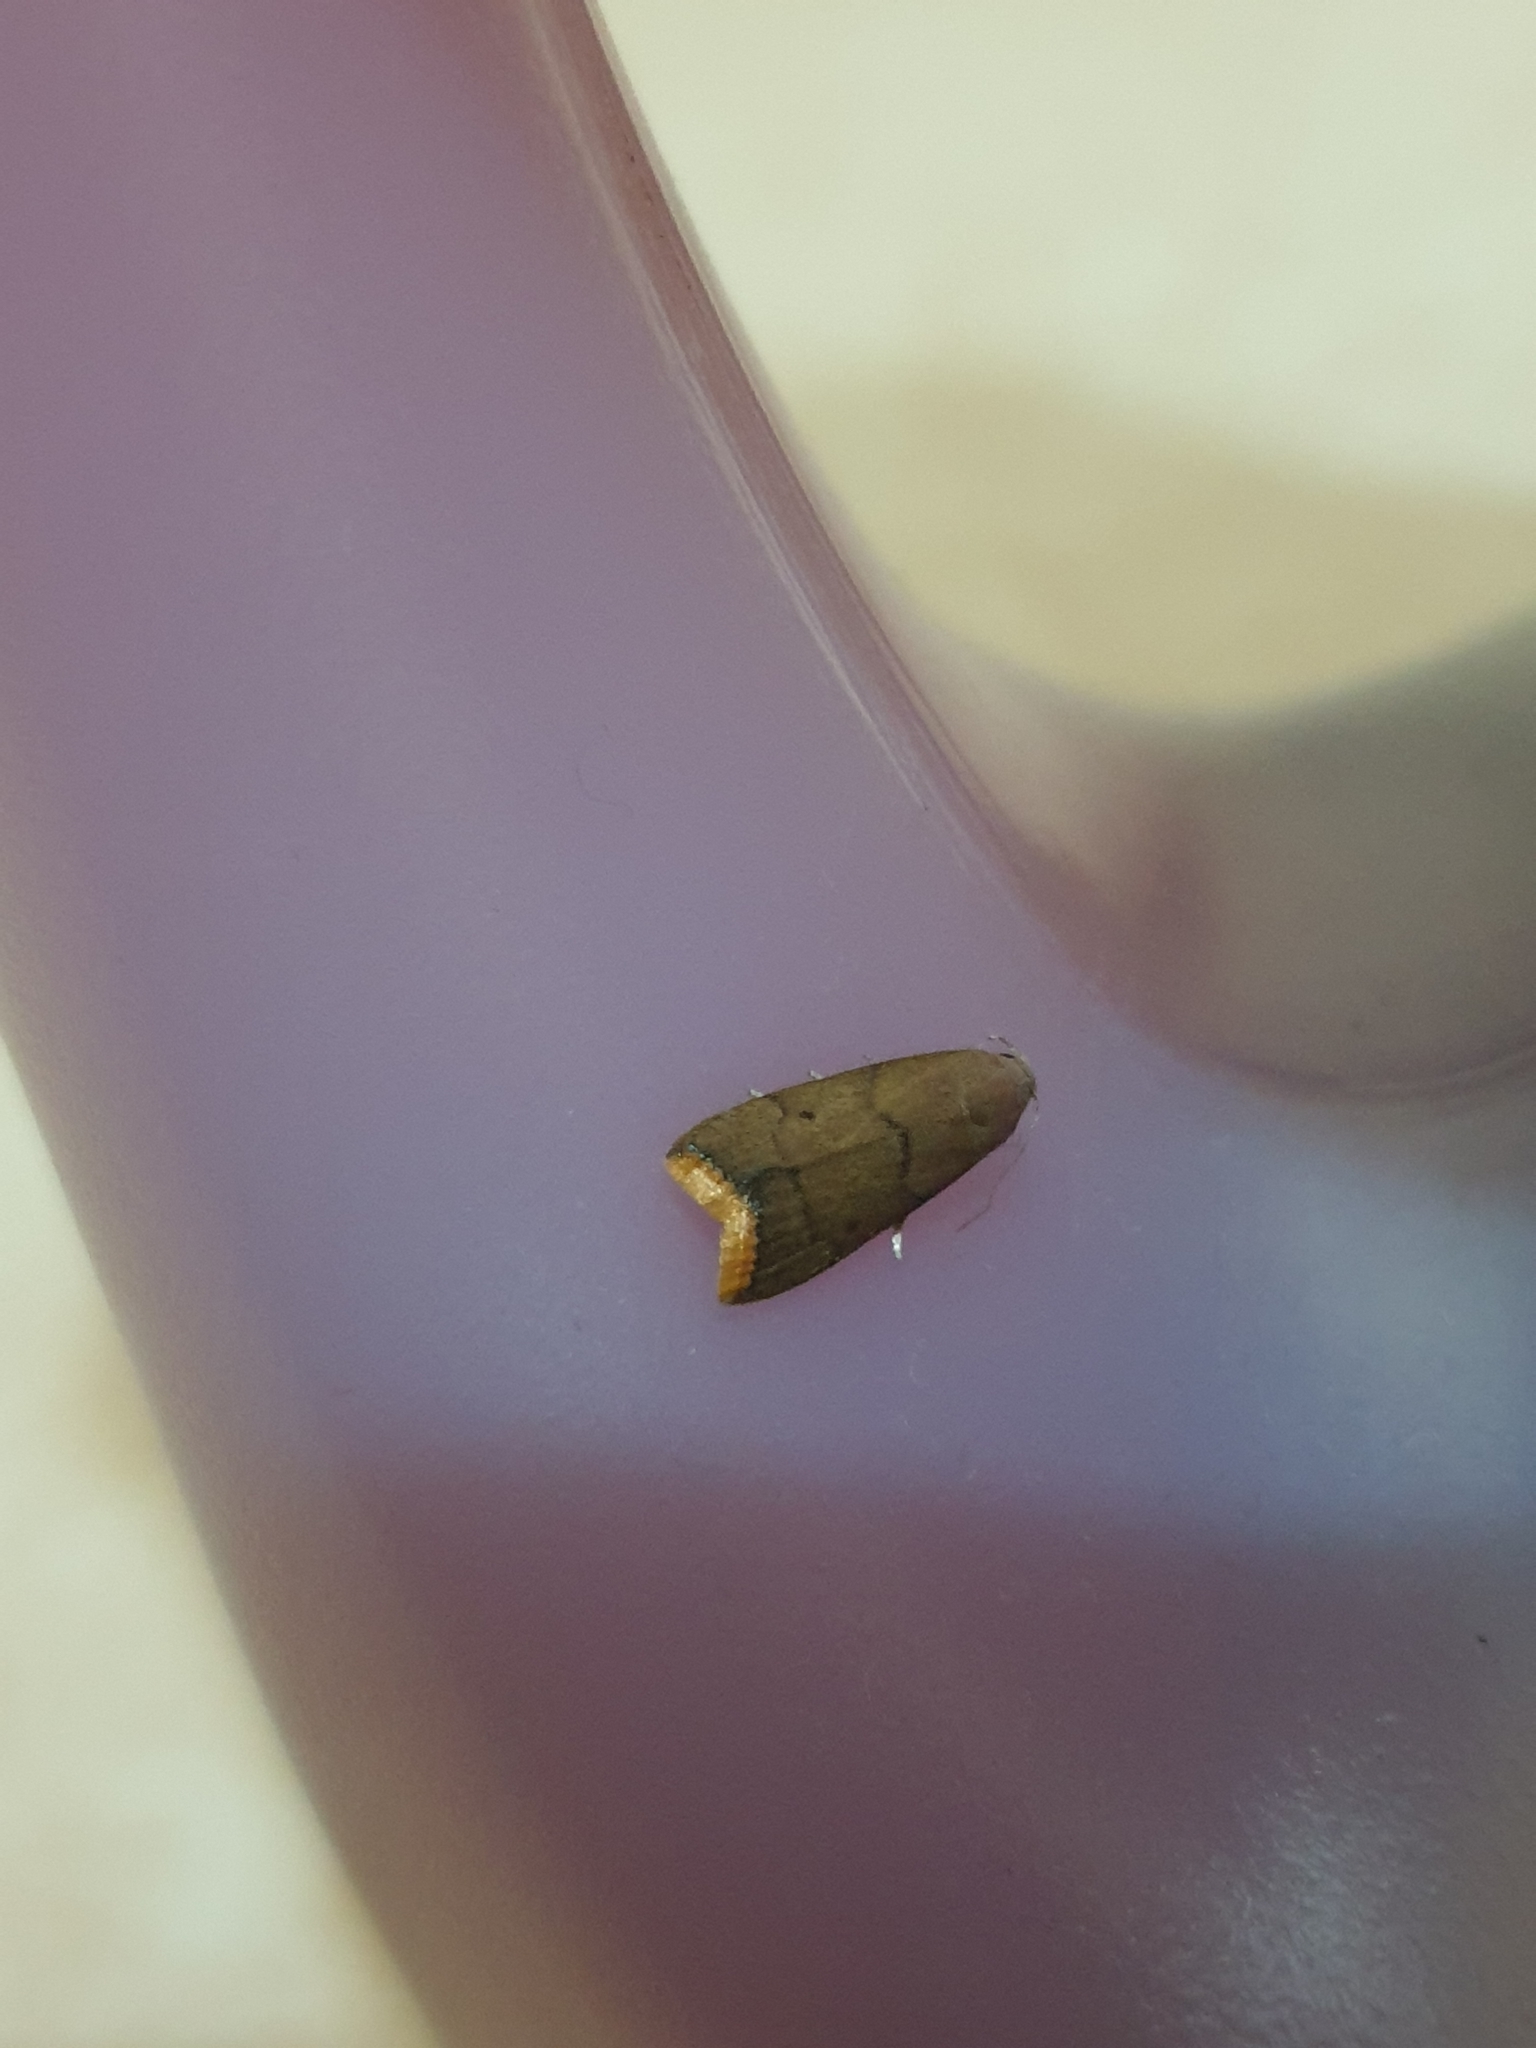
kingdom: Animalia
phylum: Arthropoda
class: Insecta
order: Lepidoptera
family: Pyralidae
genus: Doloessa
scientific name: Doloessa ochrociliella
